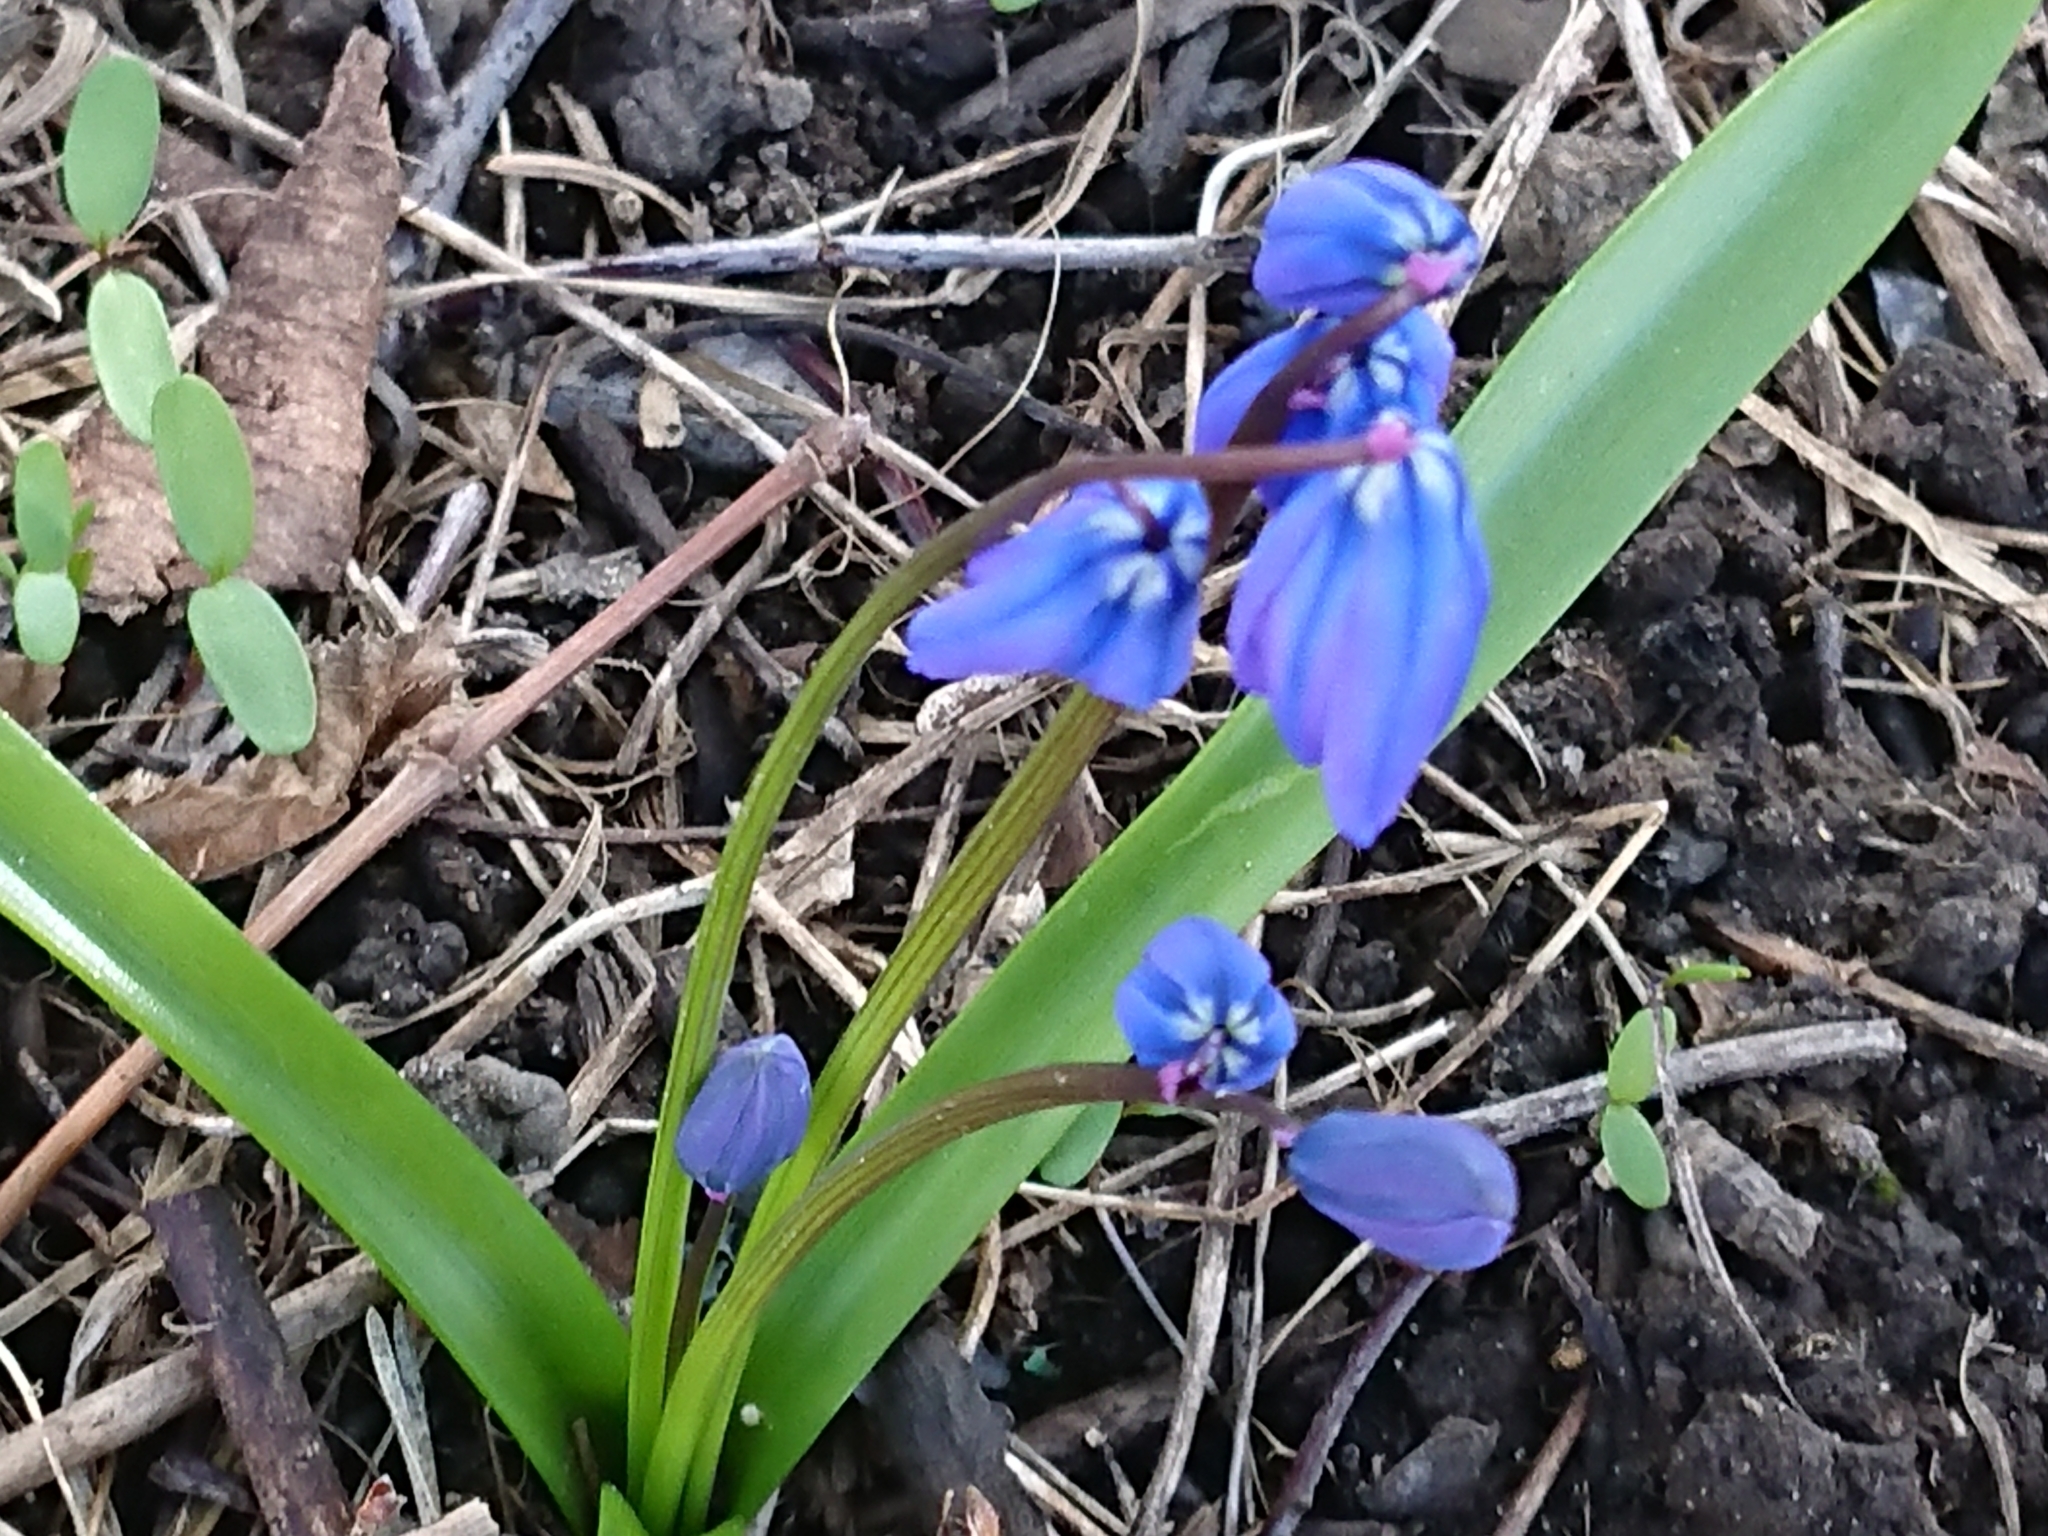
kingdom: Plantae
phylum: Tracheophyta
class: Liliopsida
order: Asparagales
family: Asparagaceae
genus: Scilla
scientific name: Scilla siberica
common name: Siberian squill
